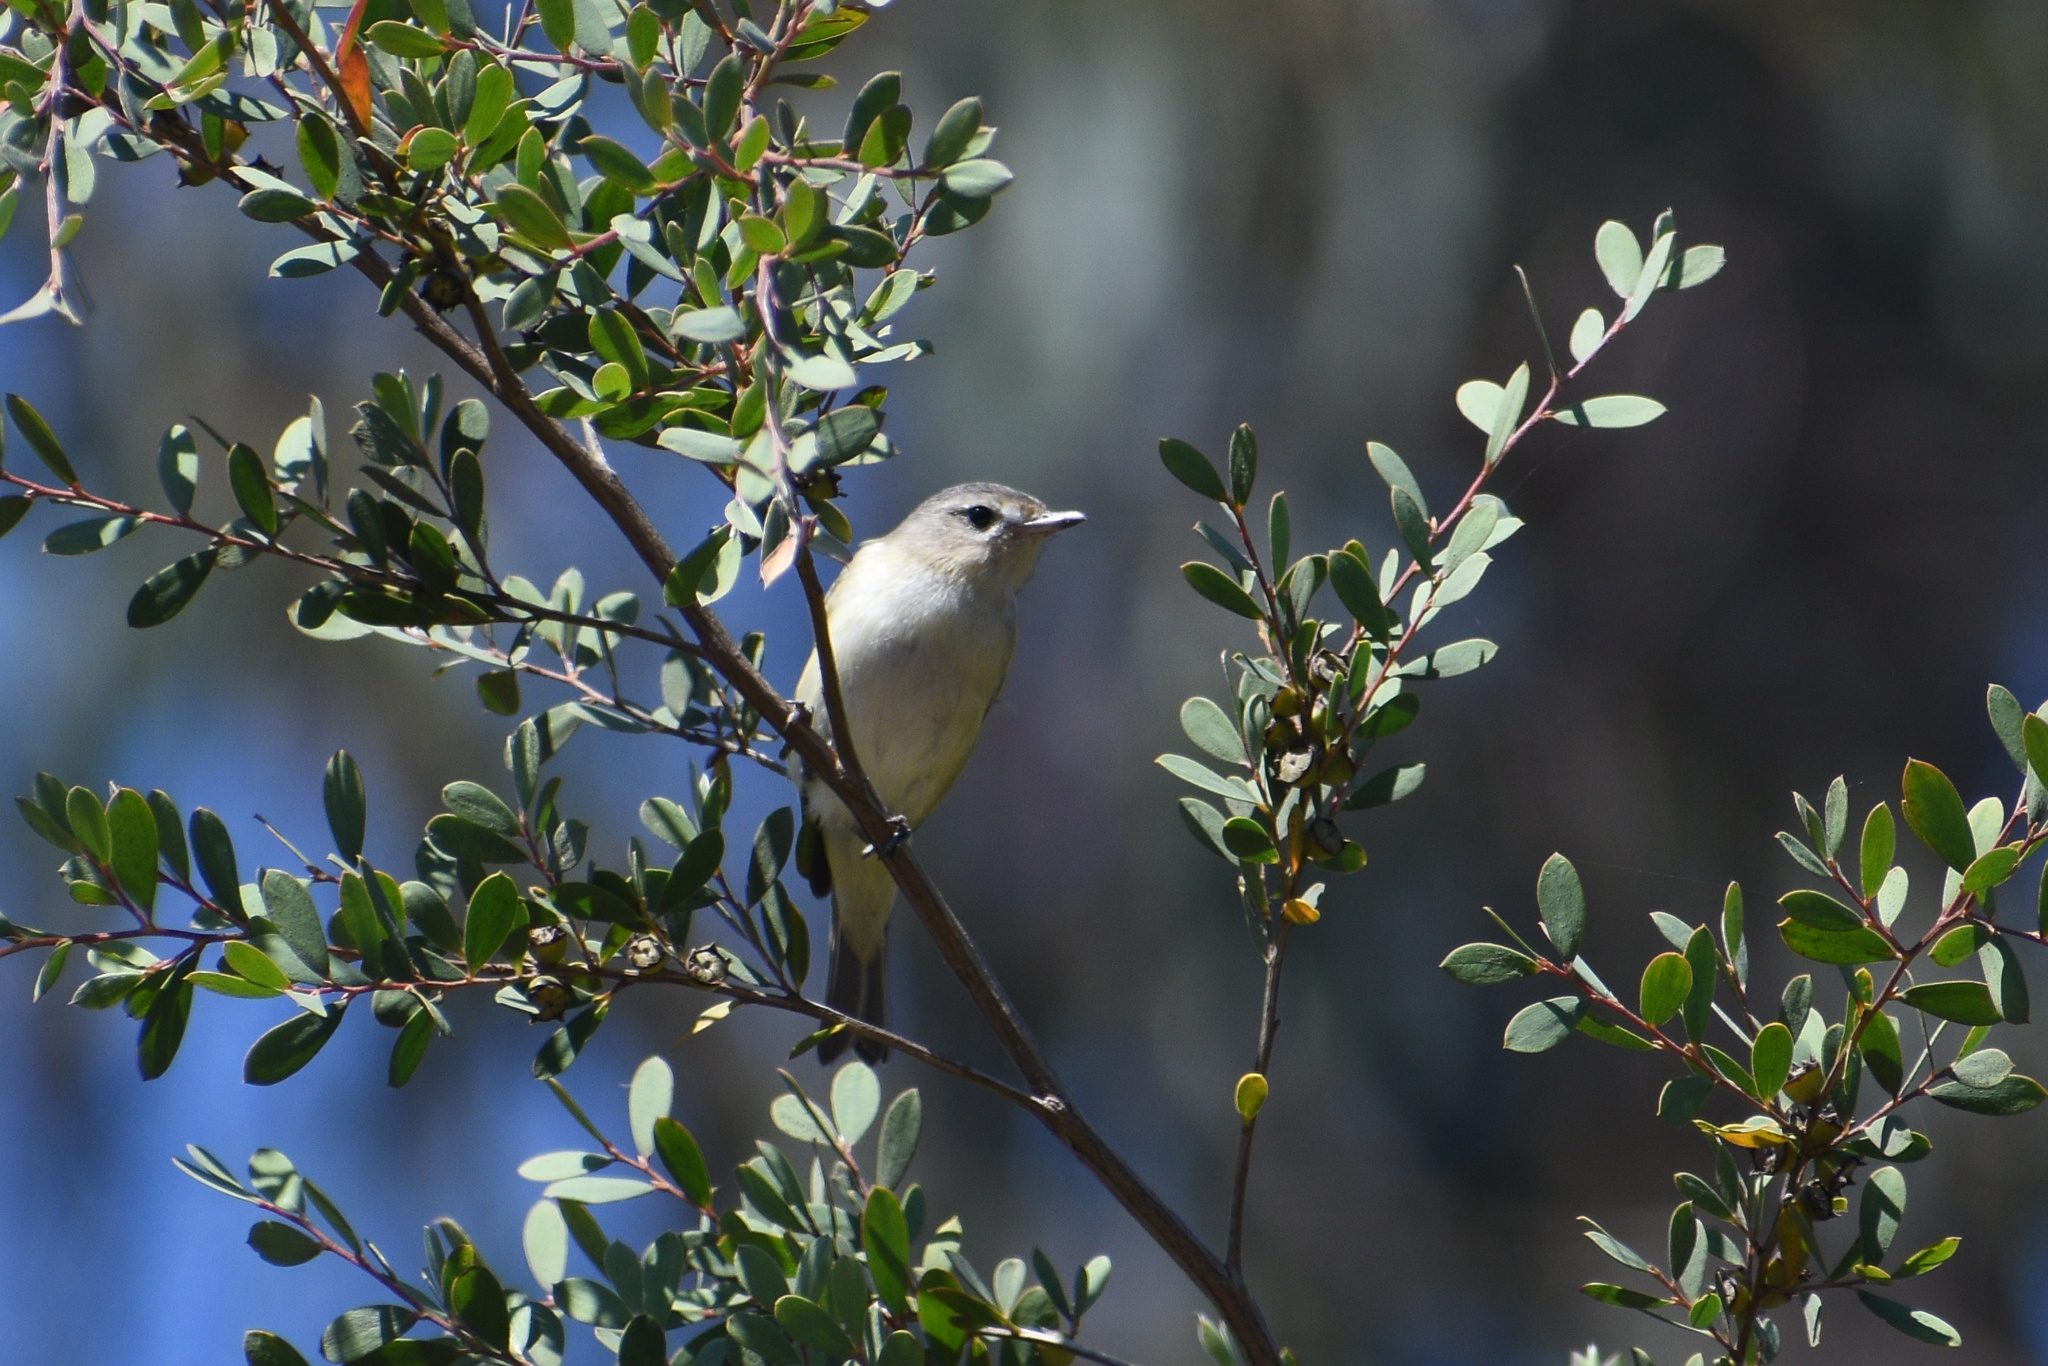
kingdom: Animalia
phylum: Chordata
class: Aves
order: Passeriformes
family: Vireonidae
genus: Vireo
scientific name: Vireo gilvus
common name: Warbling vireo
